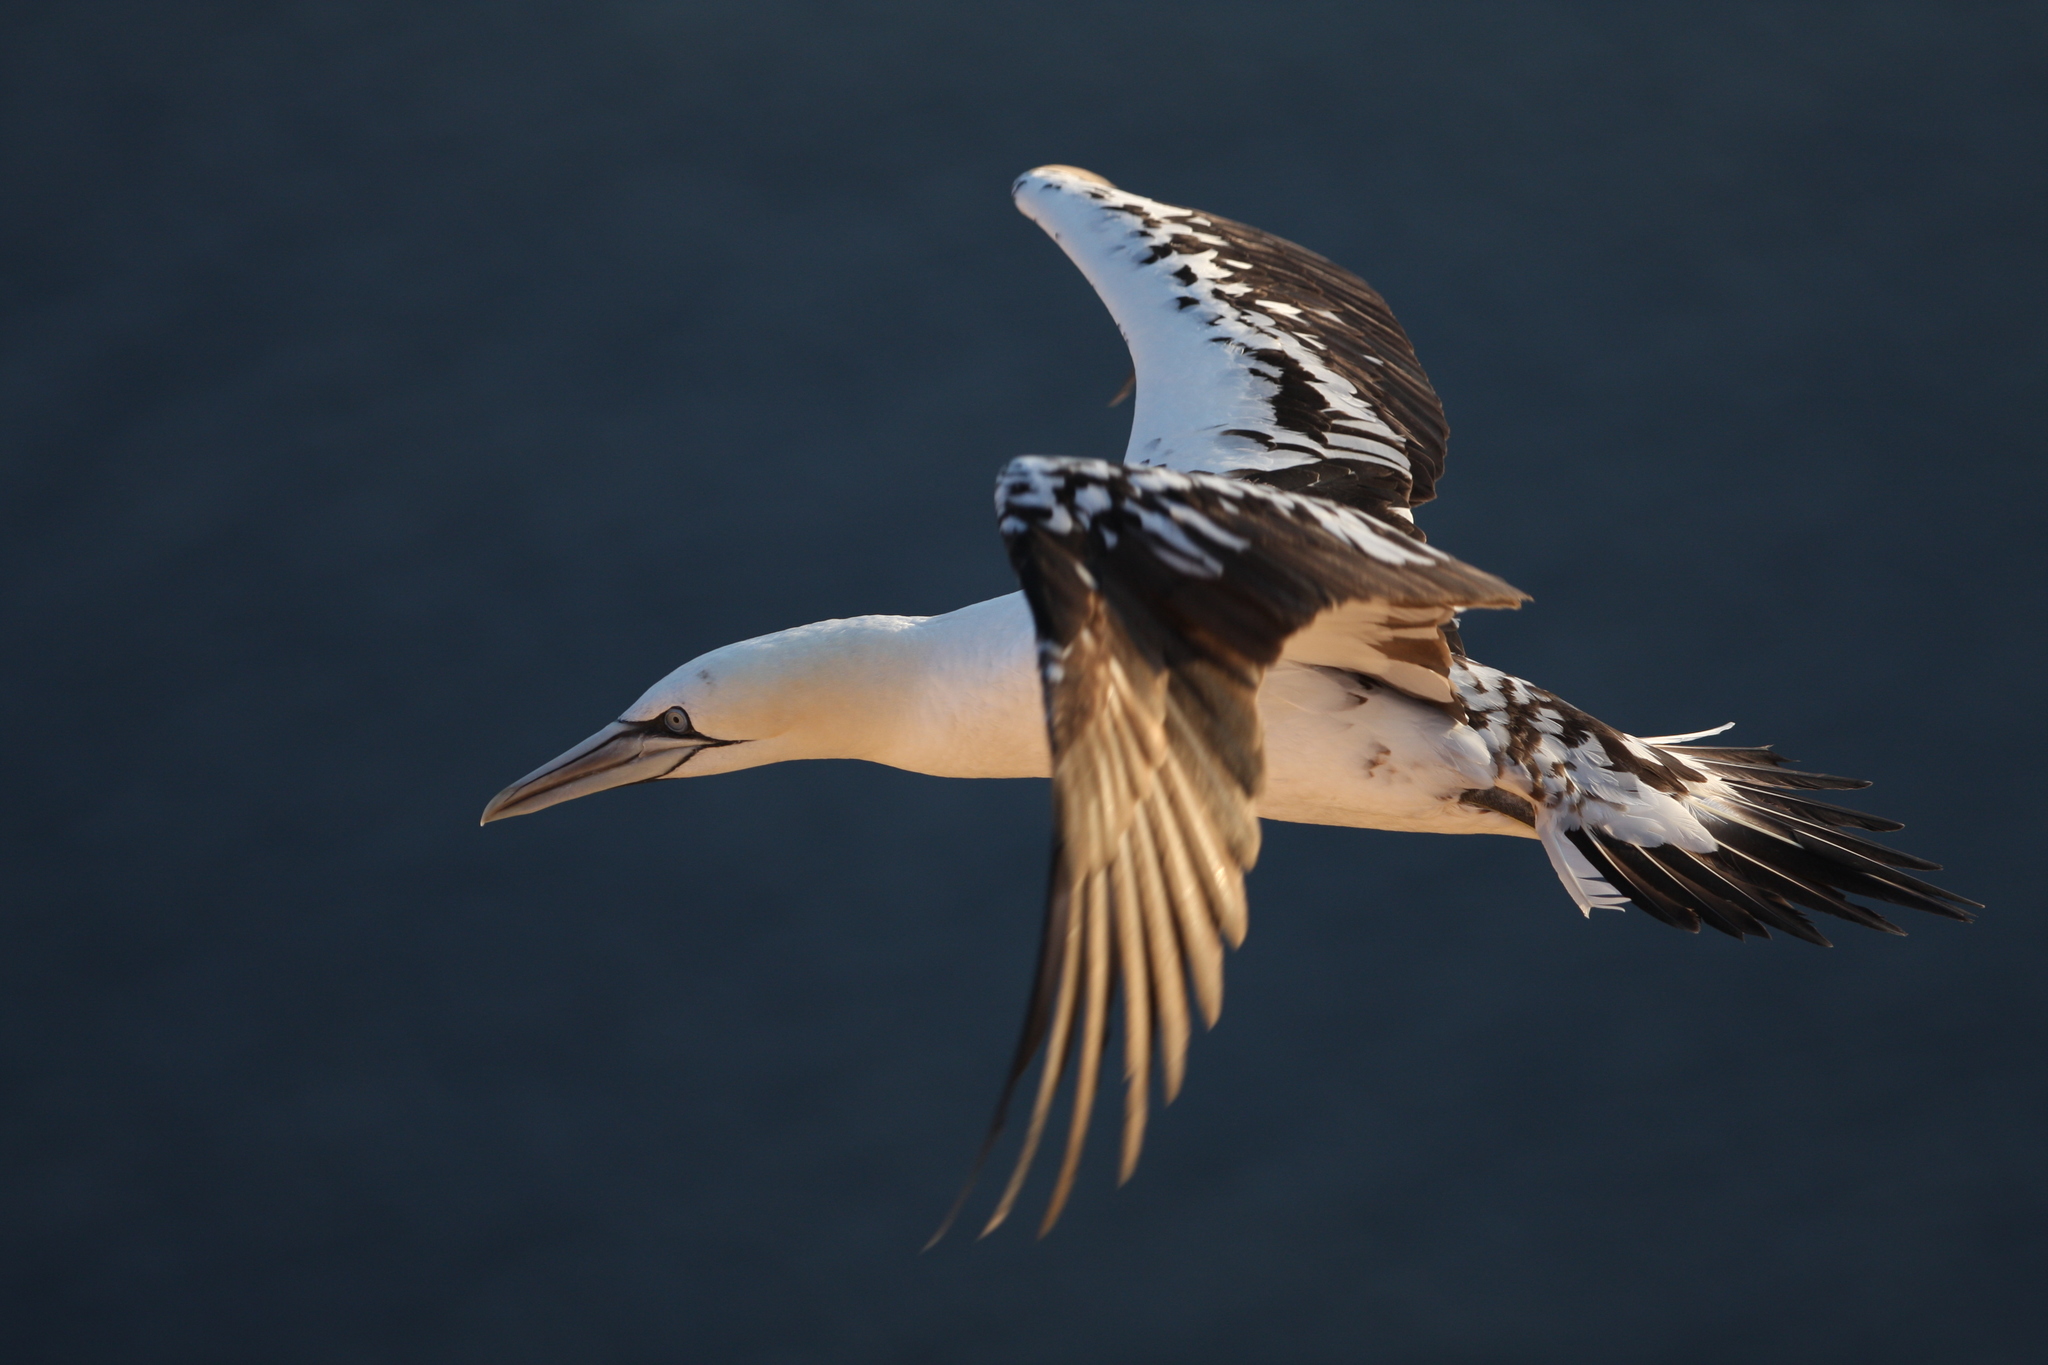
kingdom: Animalia
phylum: Chordata
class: Aves
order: Suliformes
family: Sulidae
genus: Morus
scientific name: Morus bassanus
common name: Northern gannet
